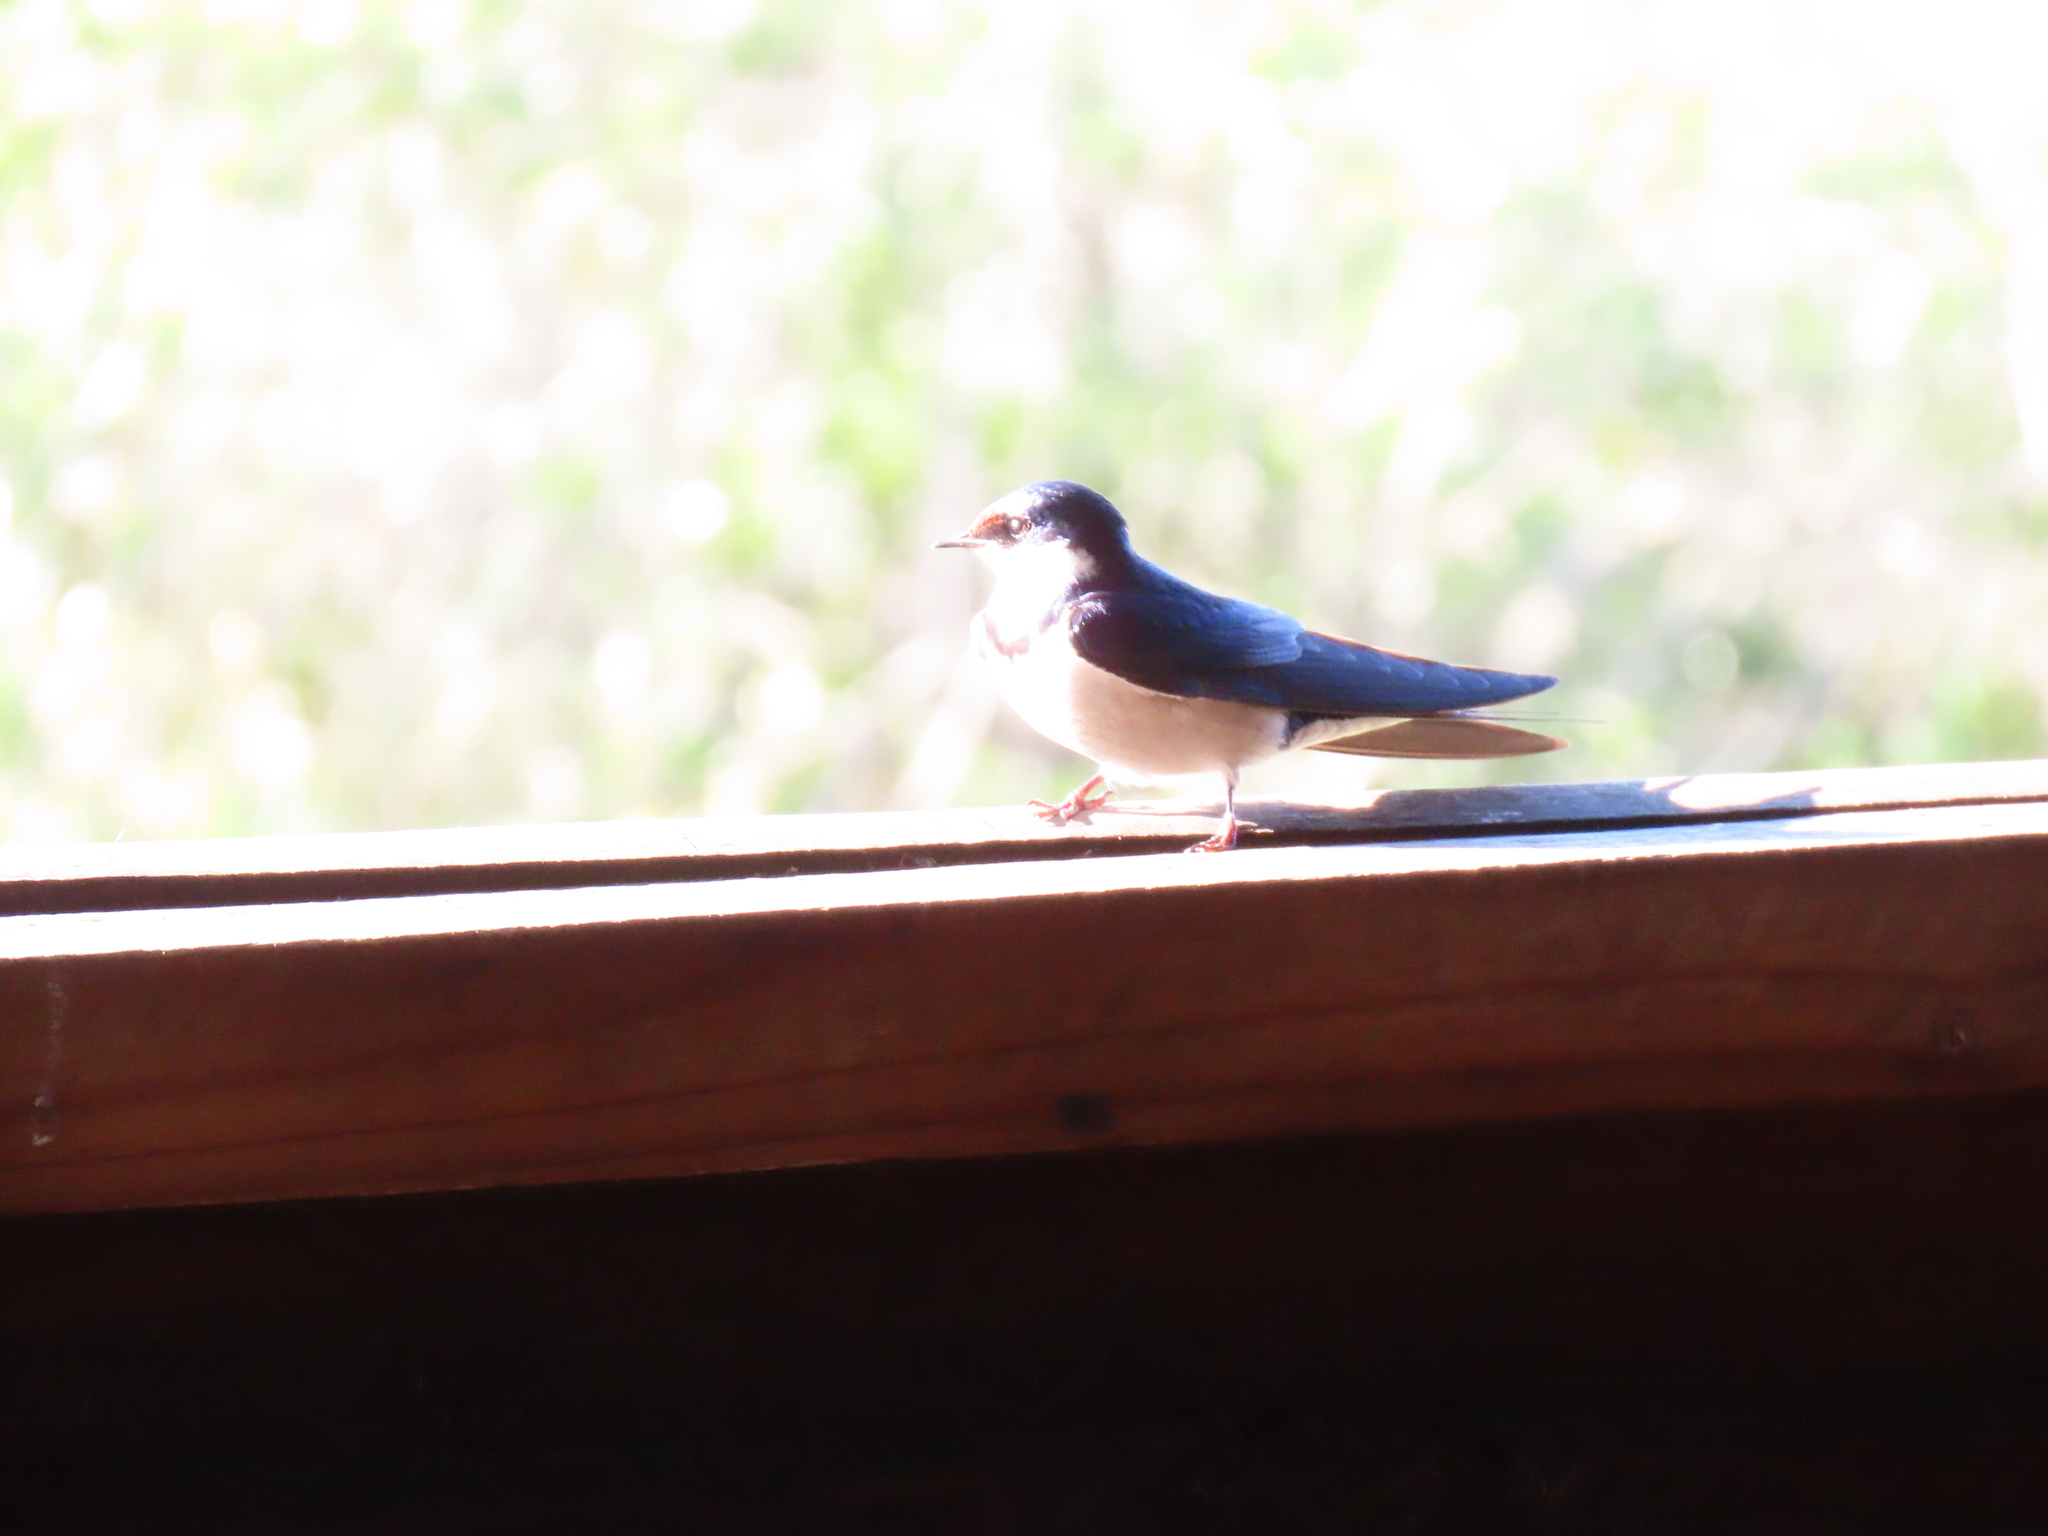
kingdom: Animalia
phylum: Chordata
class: Aves
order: Passeriformes
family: Hirundinidae
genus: Hirundo
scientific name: Hirundo albigularis
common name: White-throated swallow
